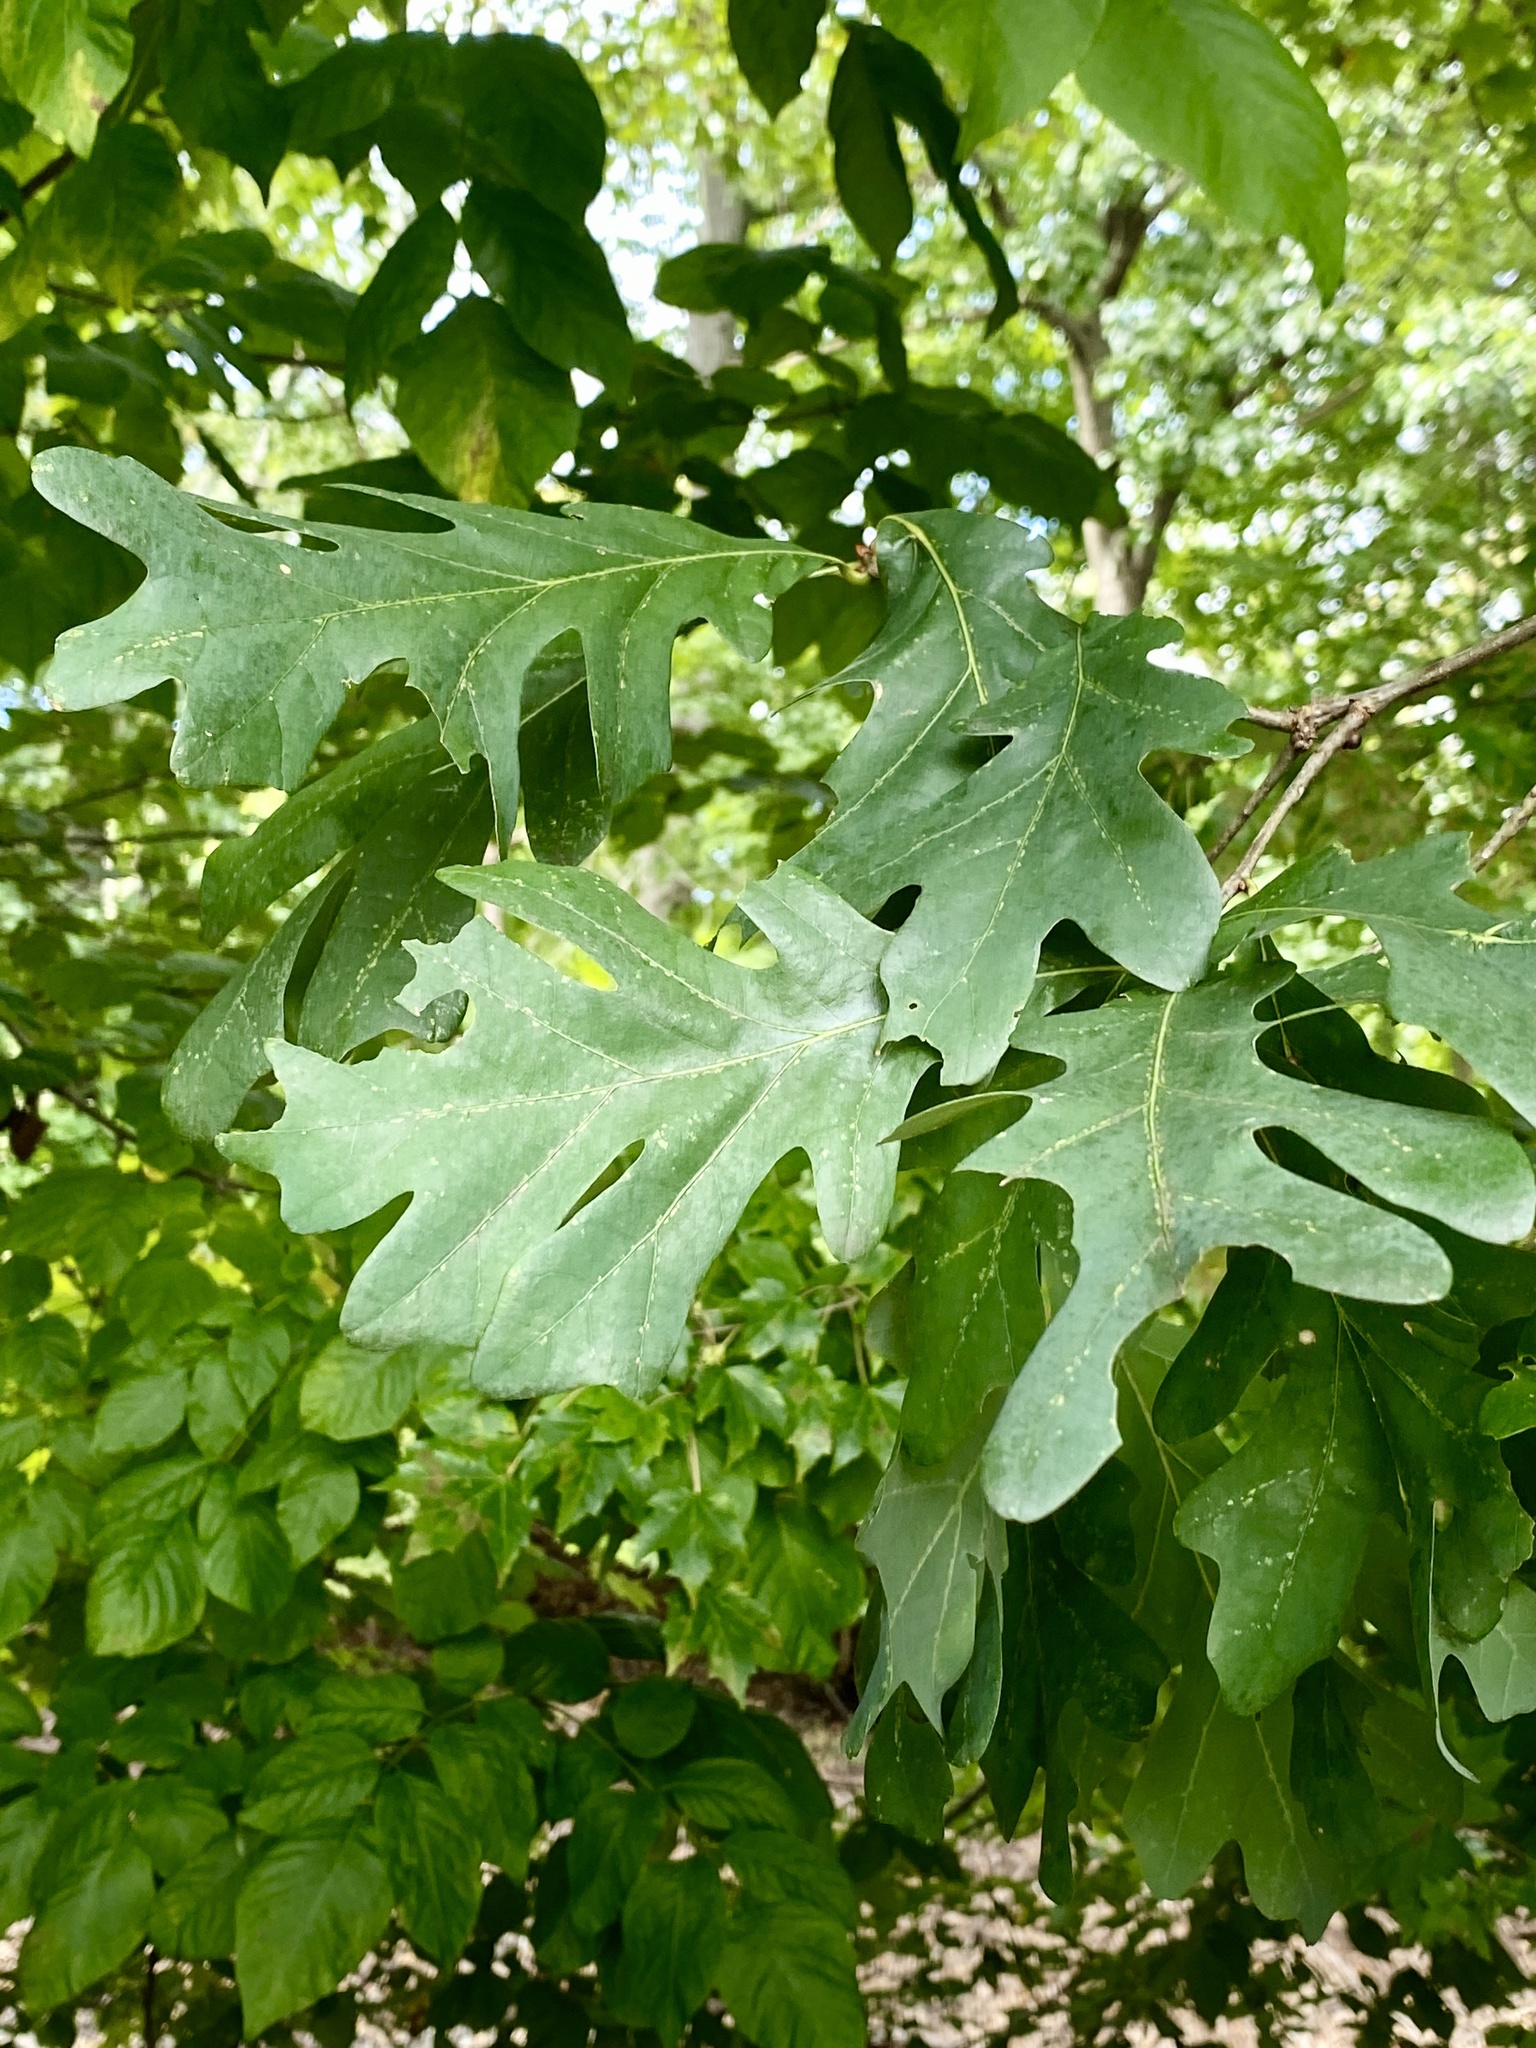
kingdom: Plantae
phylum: Tracheophyta
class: Magnoliopsida
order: Fagales
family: Fagaceae
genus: Quercus
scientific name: Quercus alba
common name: White oak
